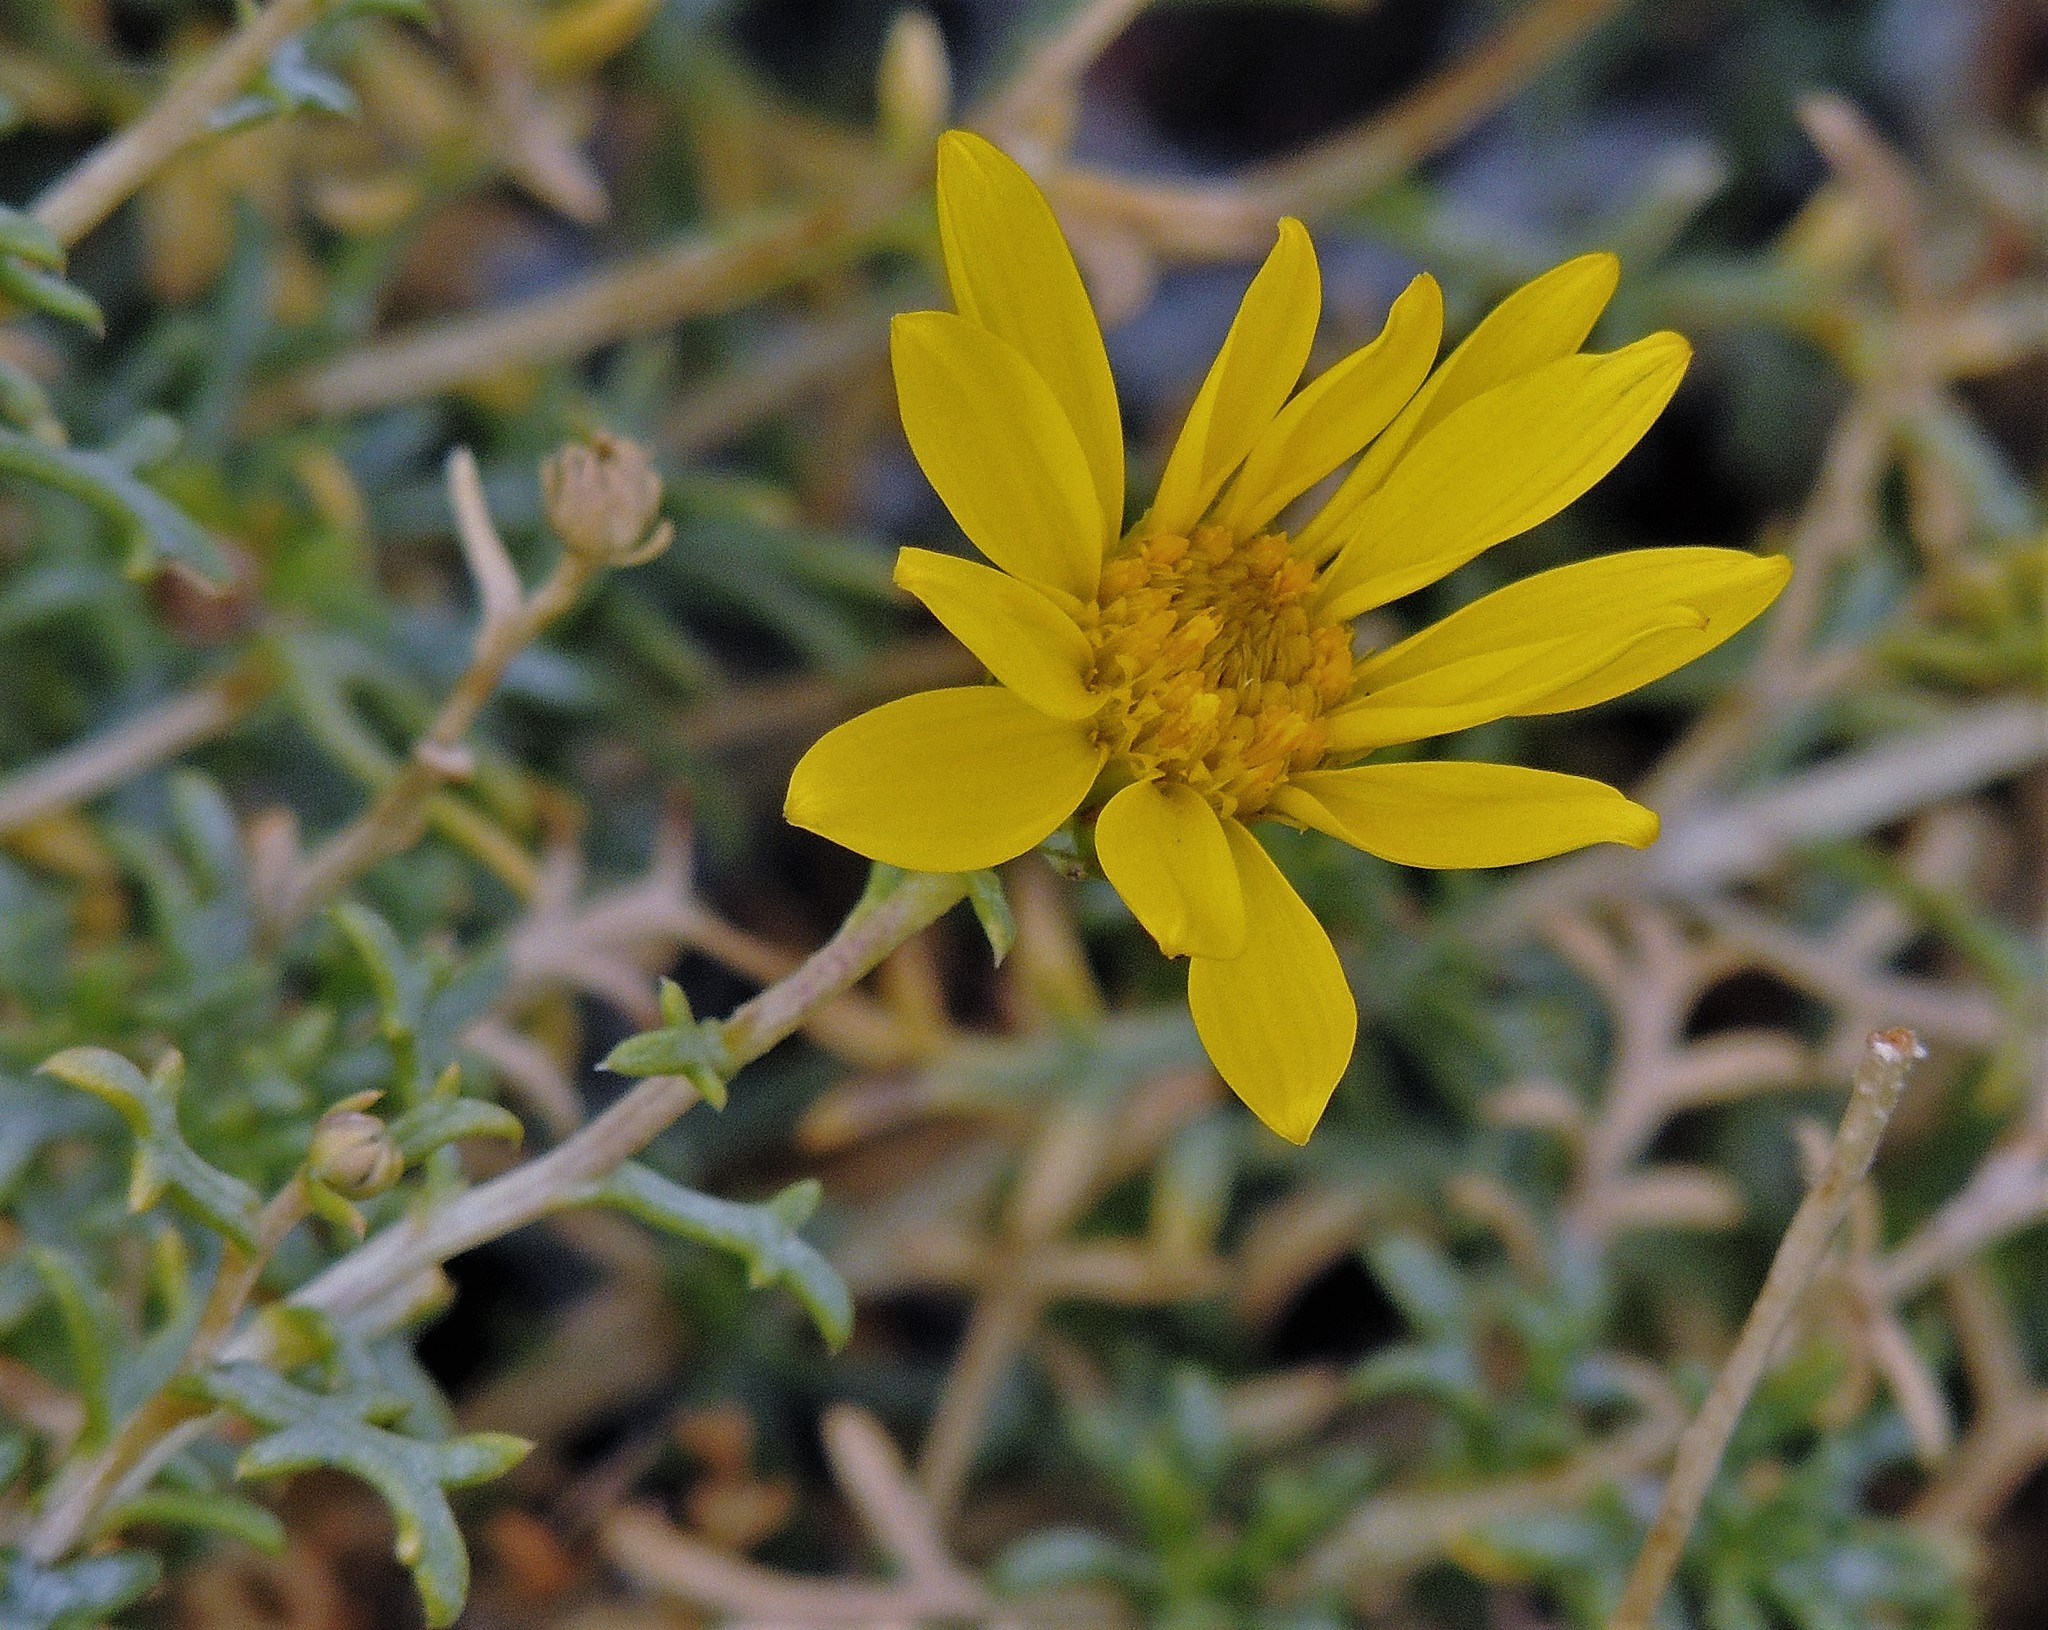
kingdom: Plantae
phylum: Tracheophyta
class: Magnoliopsida
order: Asterales
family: Asteraceae
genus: Grindelia
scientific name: Grindelia anethifolia
